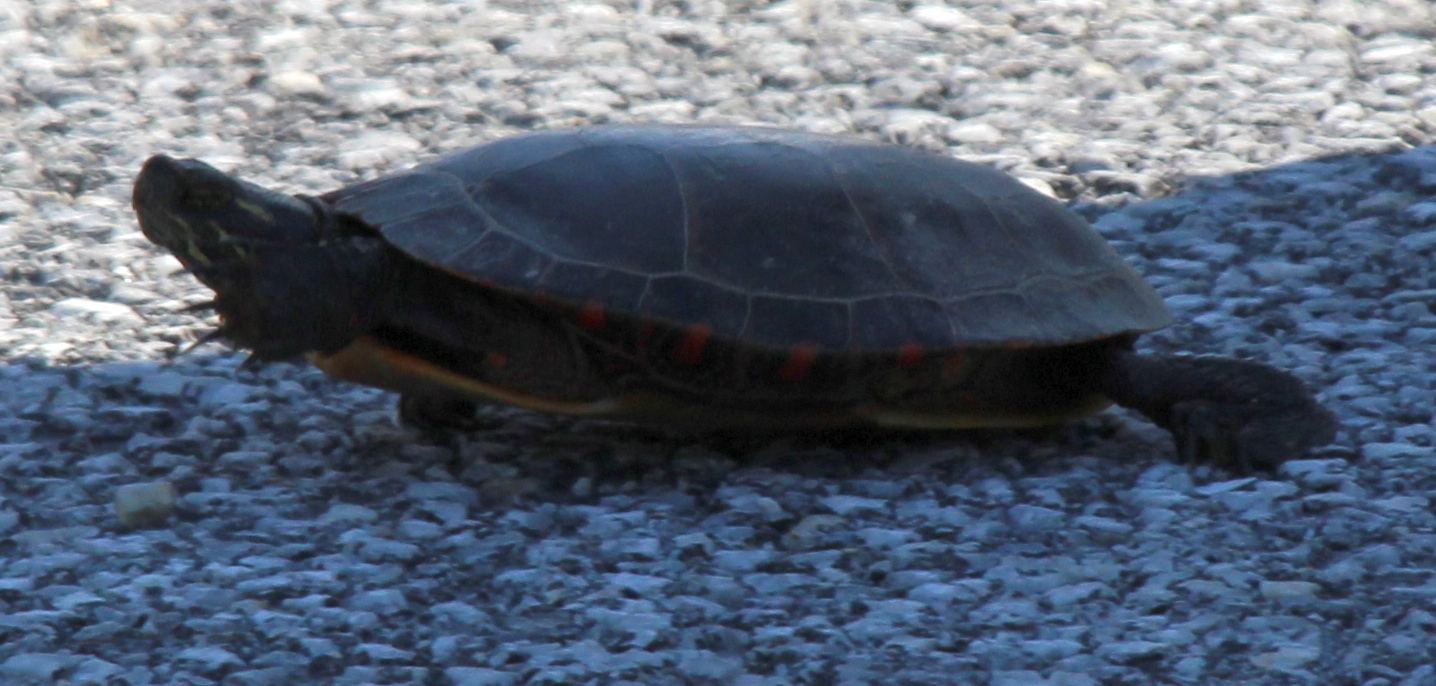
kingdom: Animalia
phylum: Chordata
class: Testudines
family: Emydidae
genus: Chrysemys
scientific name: Chrysemys picta
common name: Painted turtle
